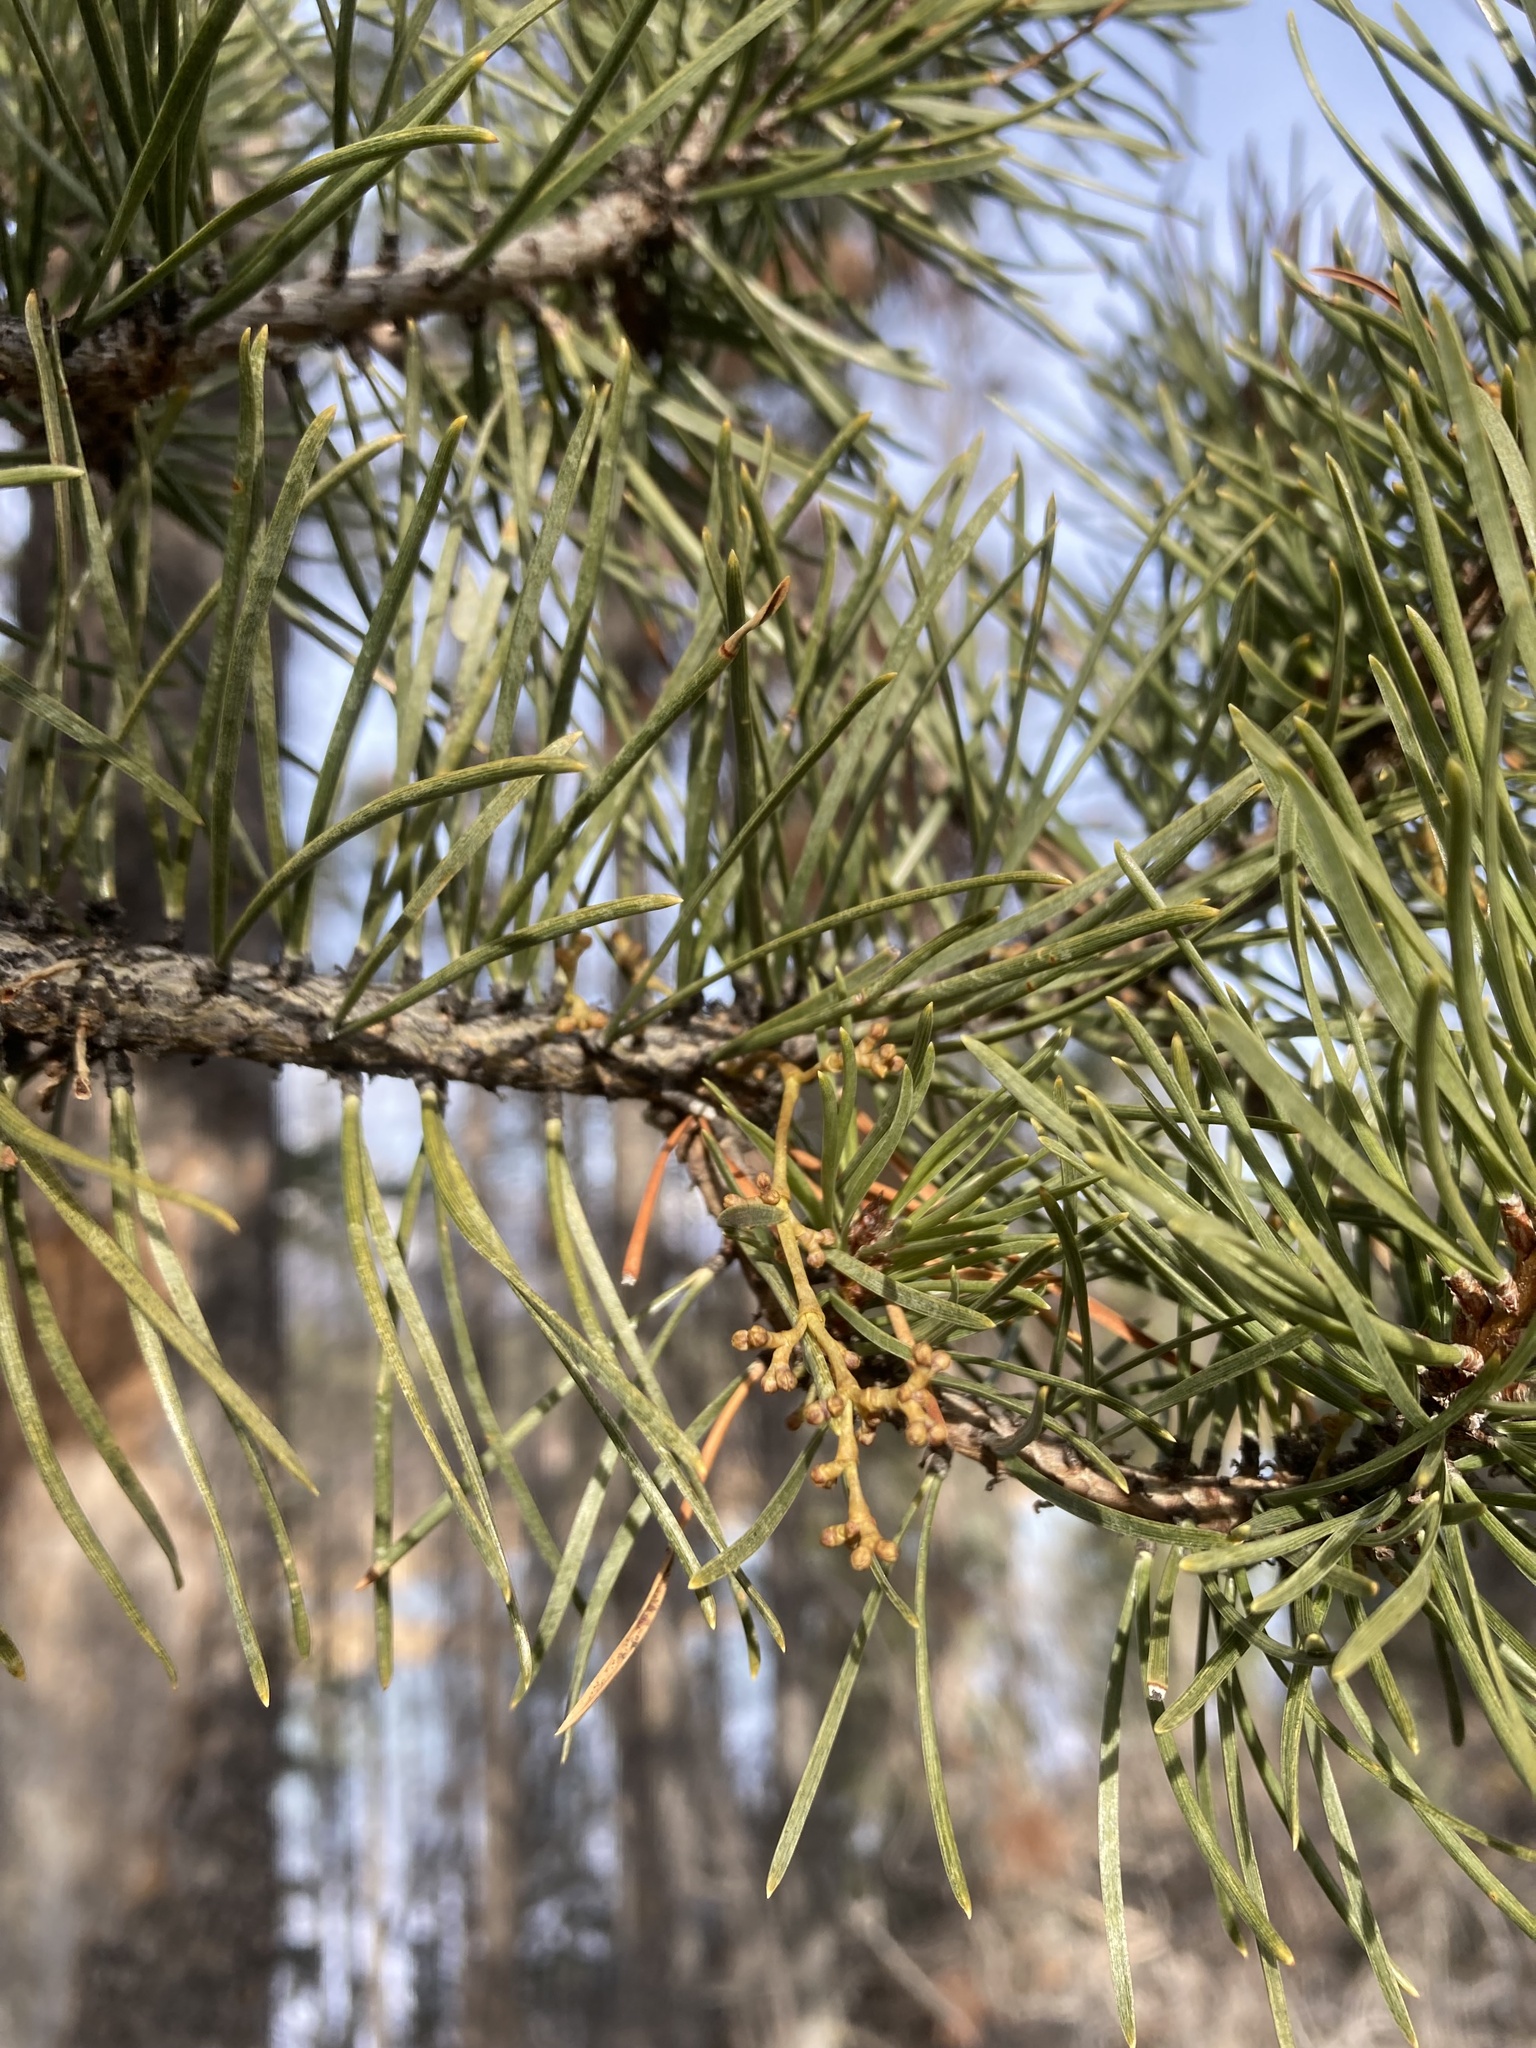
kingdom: Plantae
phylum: Tracheophyta
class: Magnoliopsida
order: Santalales
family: Viscaceae
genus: Arceuthobium
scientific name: Arceuthobium americanum
